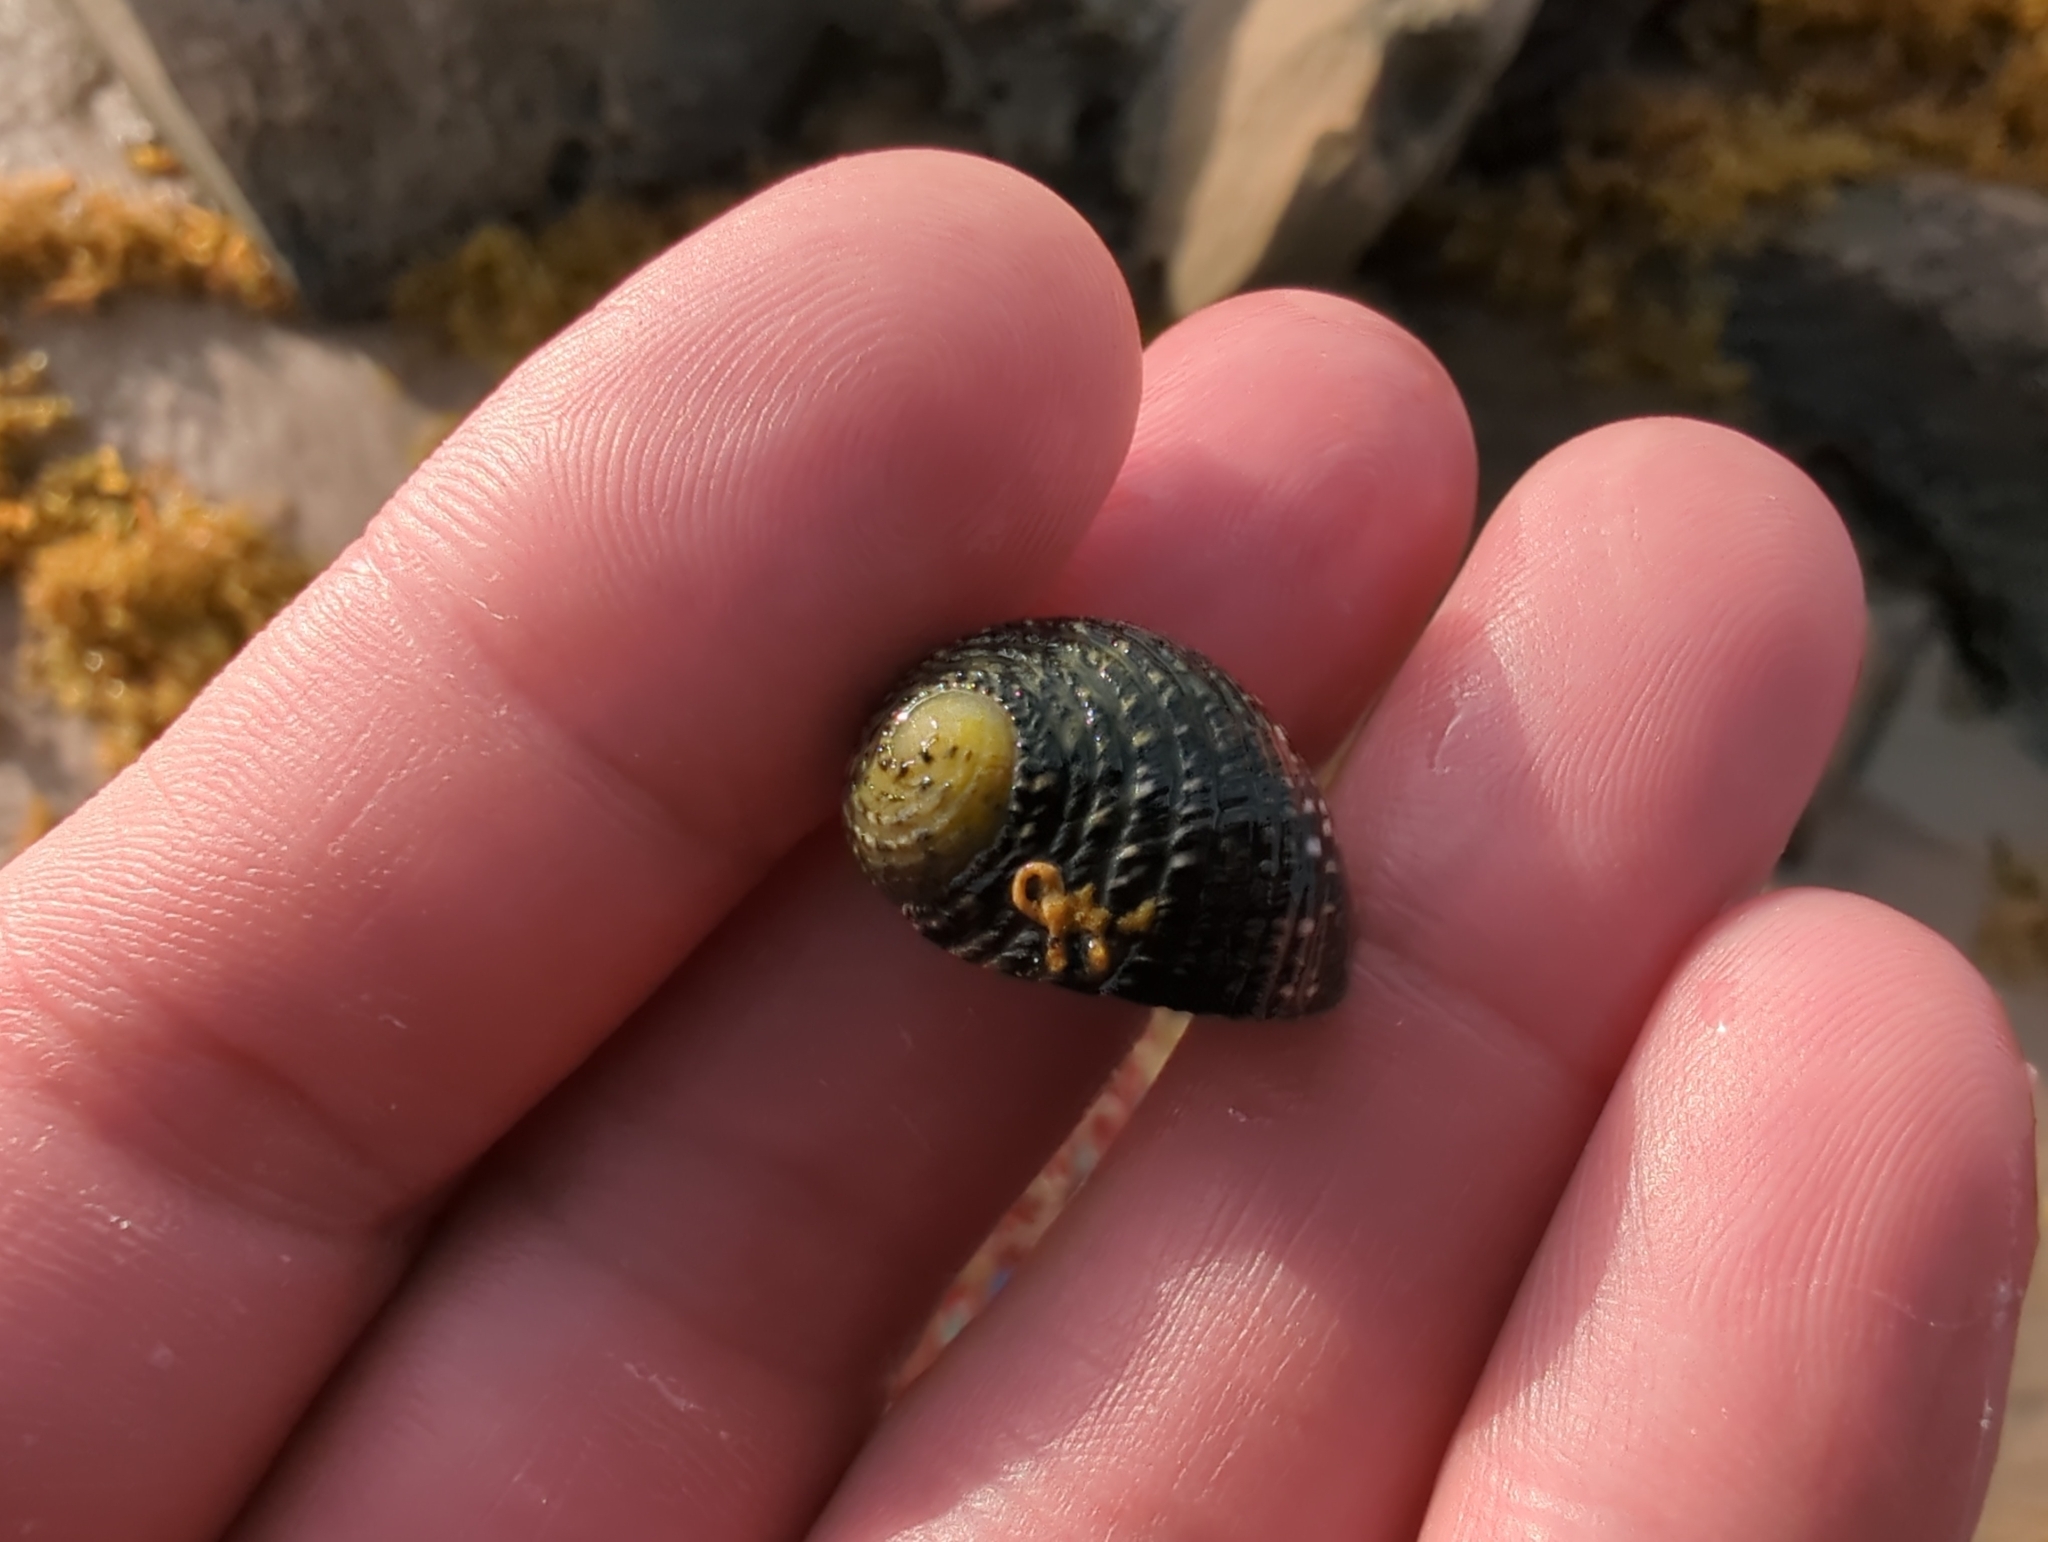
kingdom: Animalia
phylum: Mollusca
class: Gastropoda
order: Cycloneritida
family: Neritidae
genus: Nerita
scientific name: Nerita versicolor
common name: Four-tooth nerite
